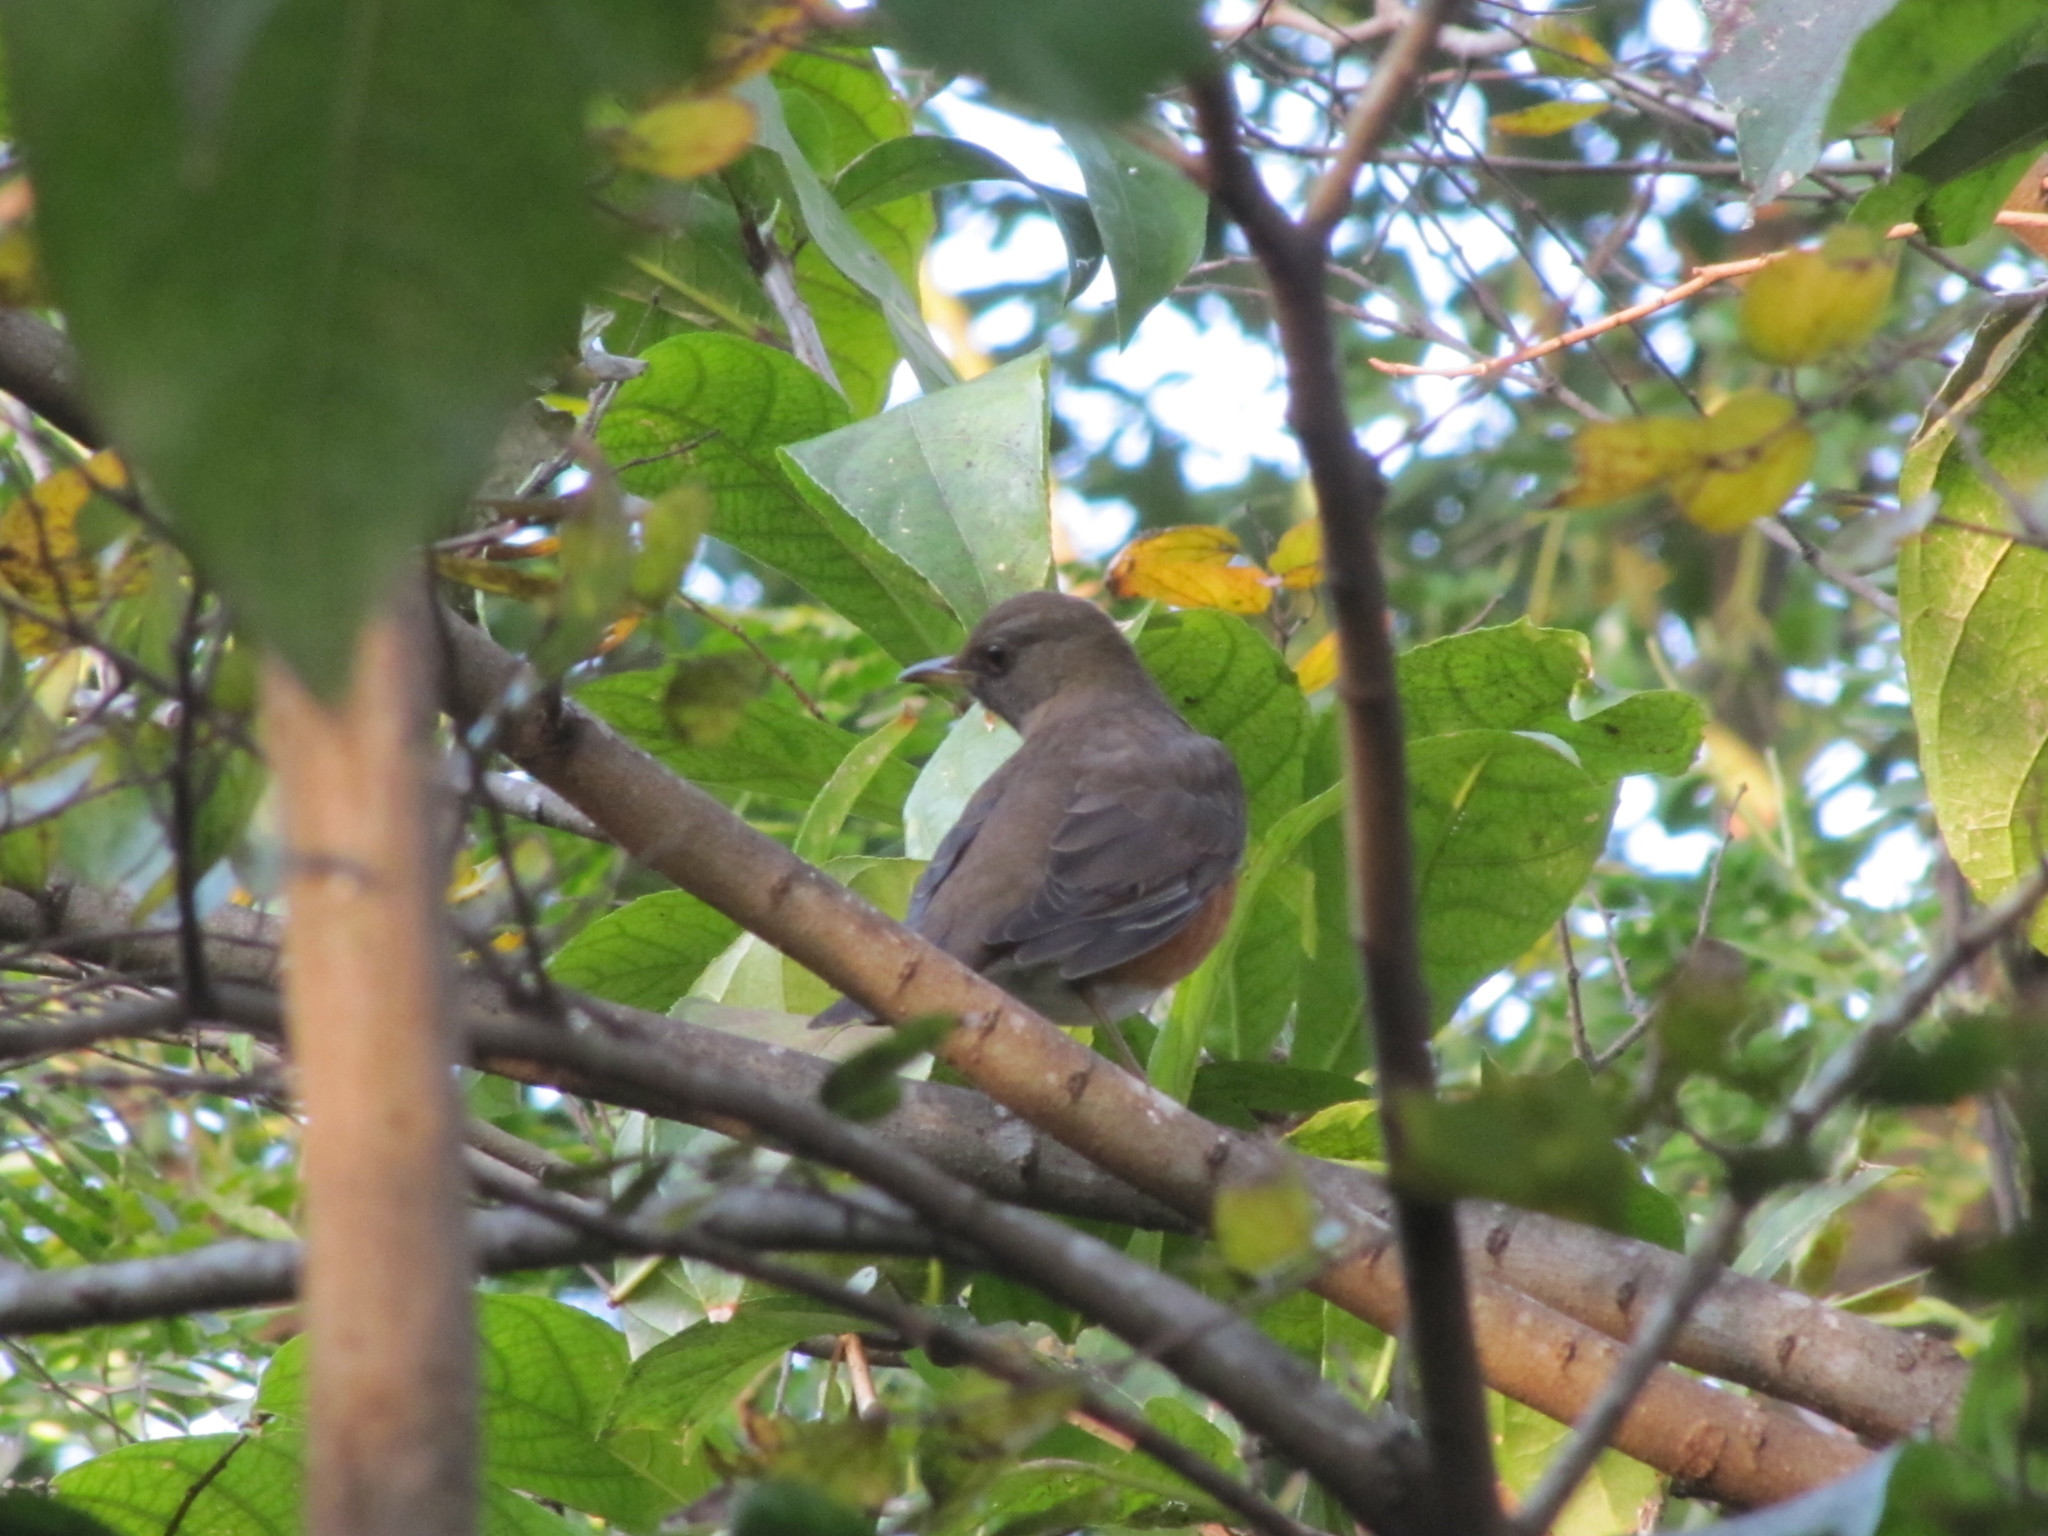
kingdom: Animalia
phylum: Chordata
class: Aves
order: Passeriformes
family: Turdidae
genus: Turdus
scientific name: Turdus chrysolaus
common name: Brown-headed thrush
